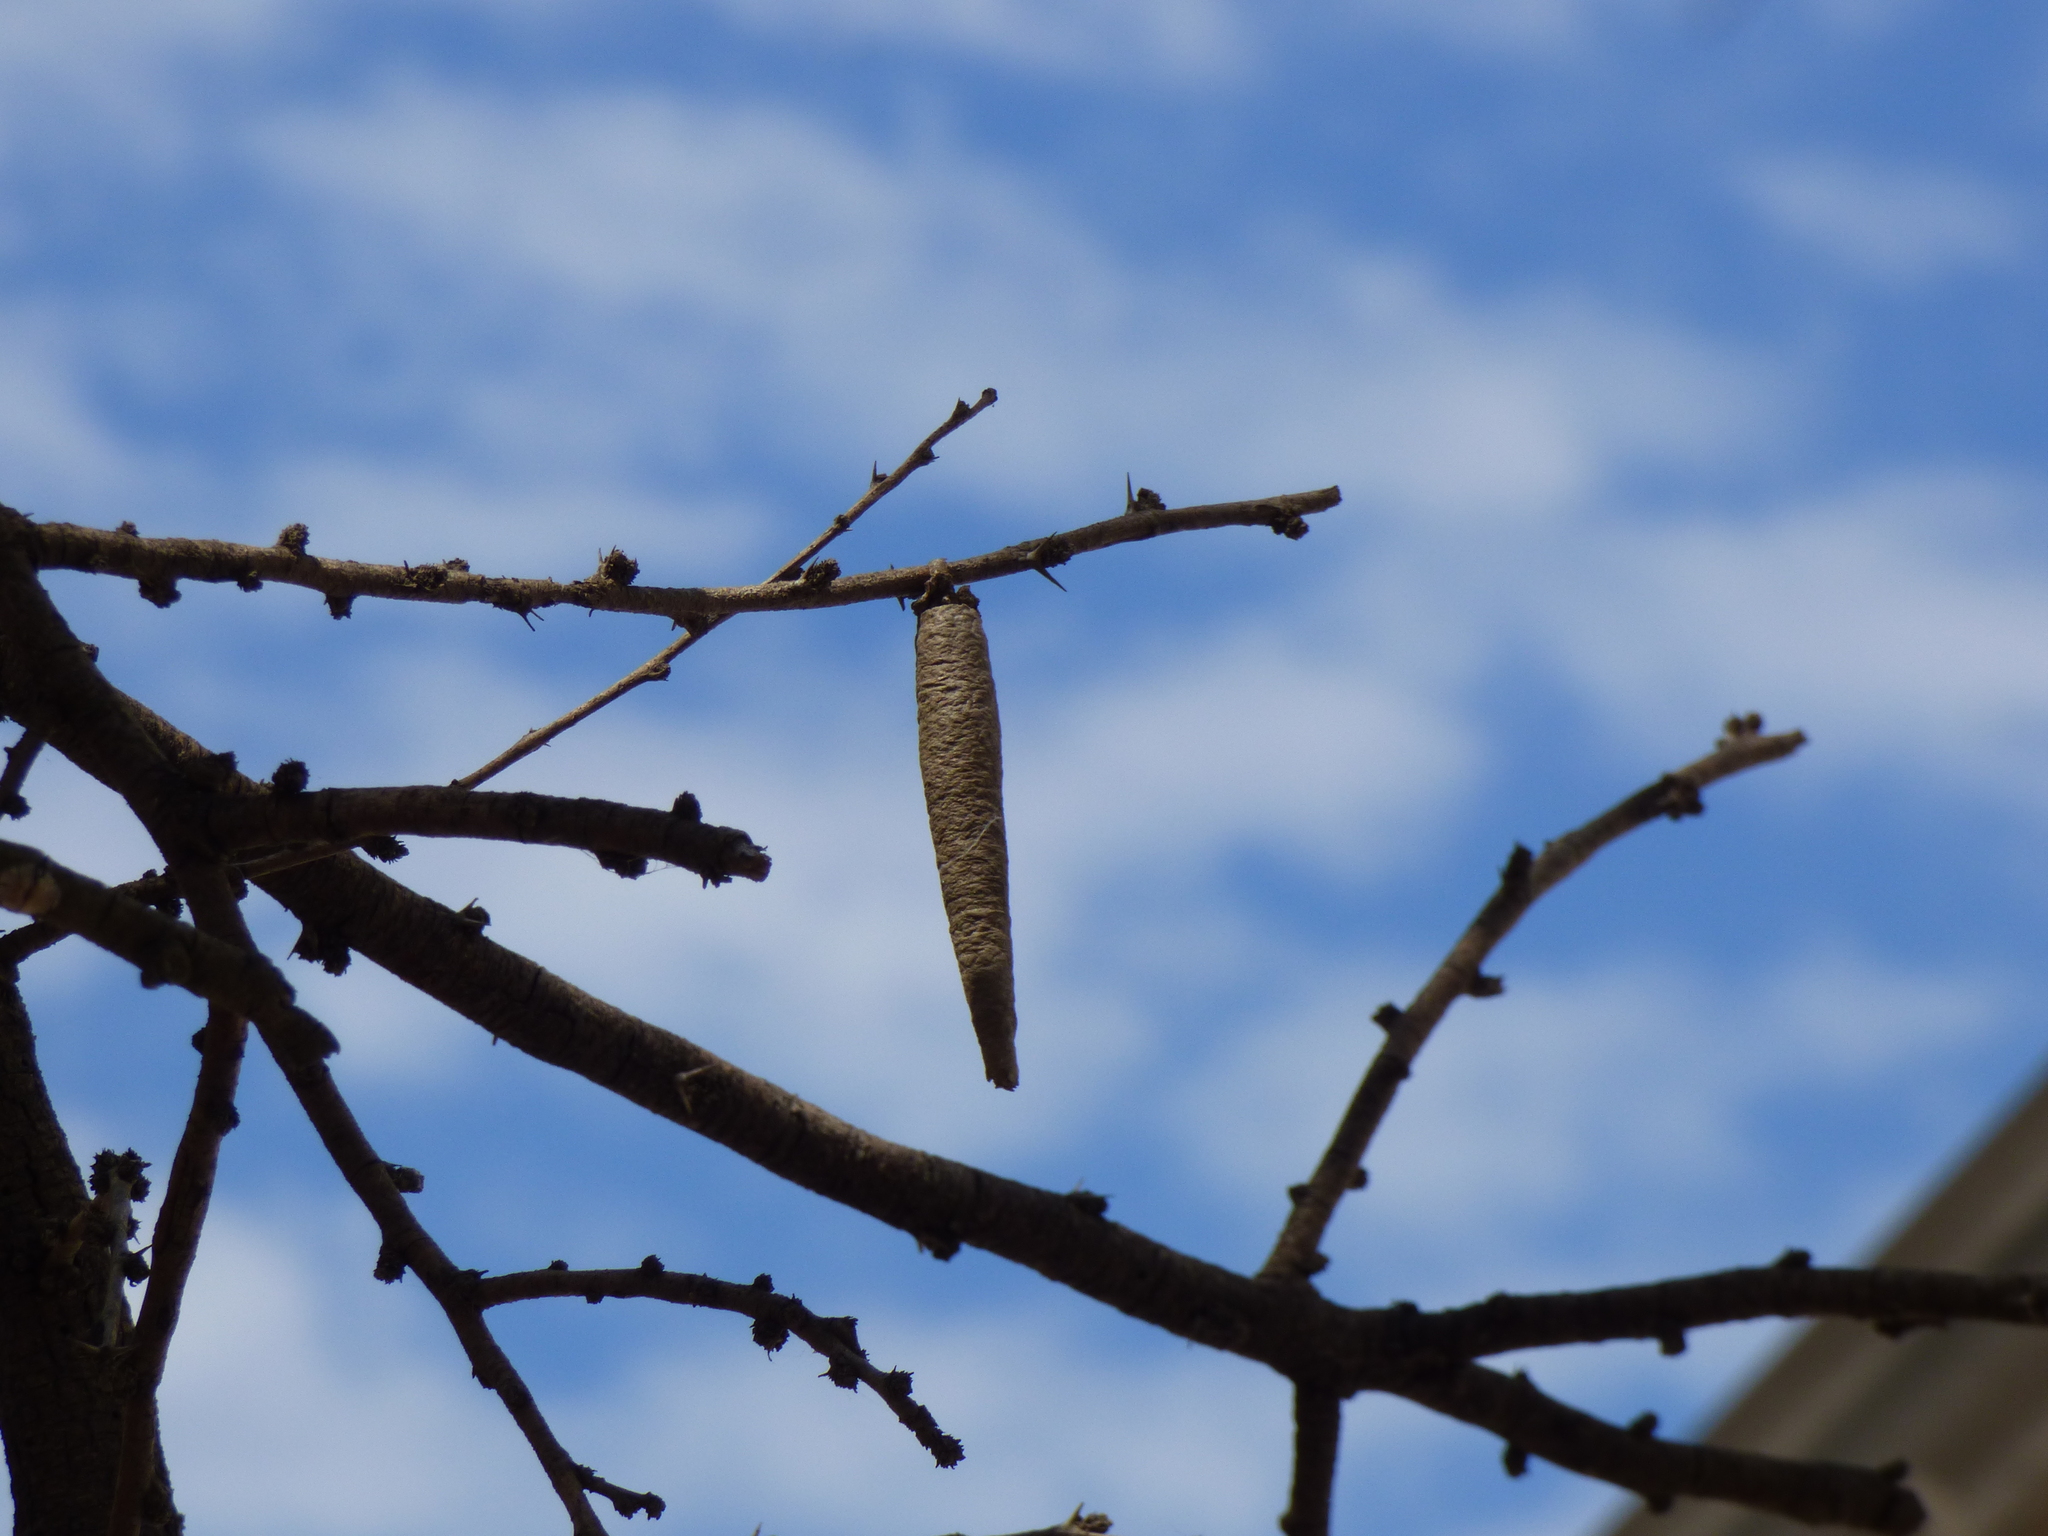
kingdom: Animalia
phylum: Arthropoda
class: Insecta
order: Lepidoptera
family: Psychidae
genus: Oiketicus
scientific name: Oiketicus geyeri
